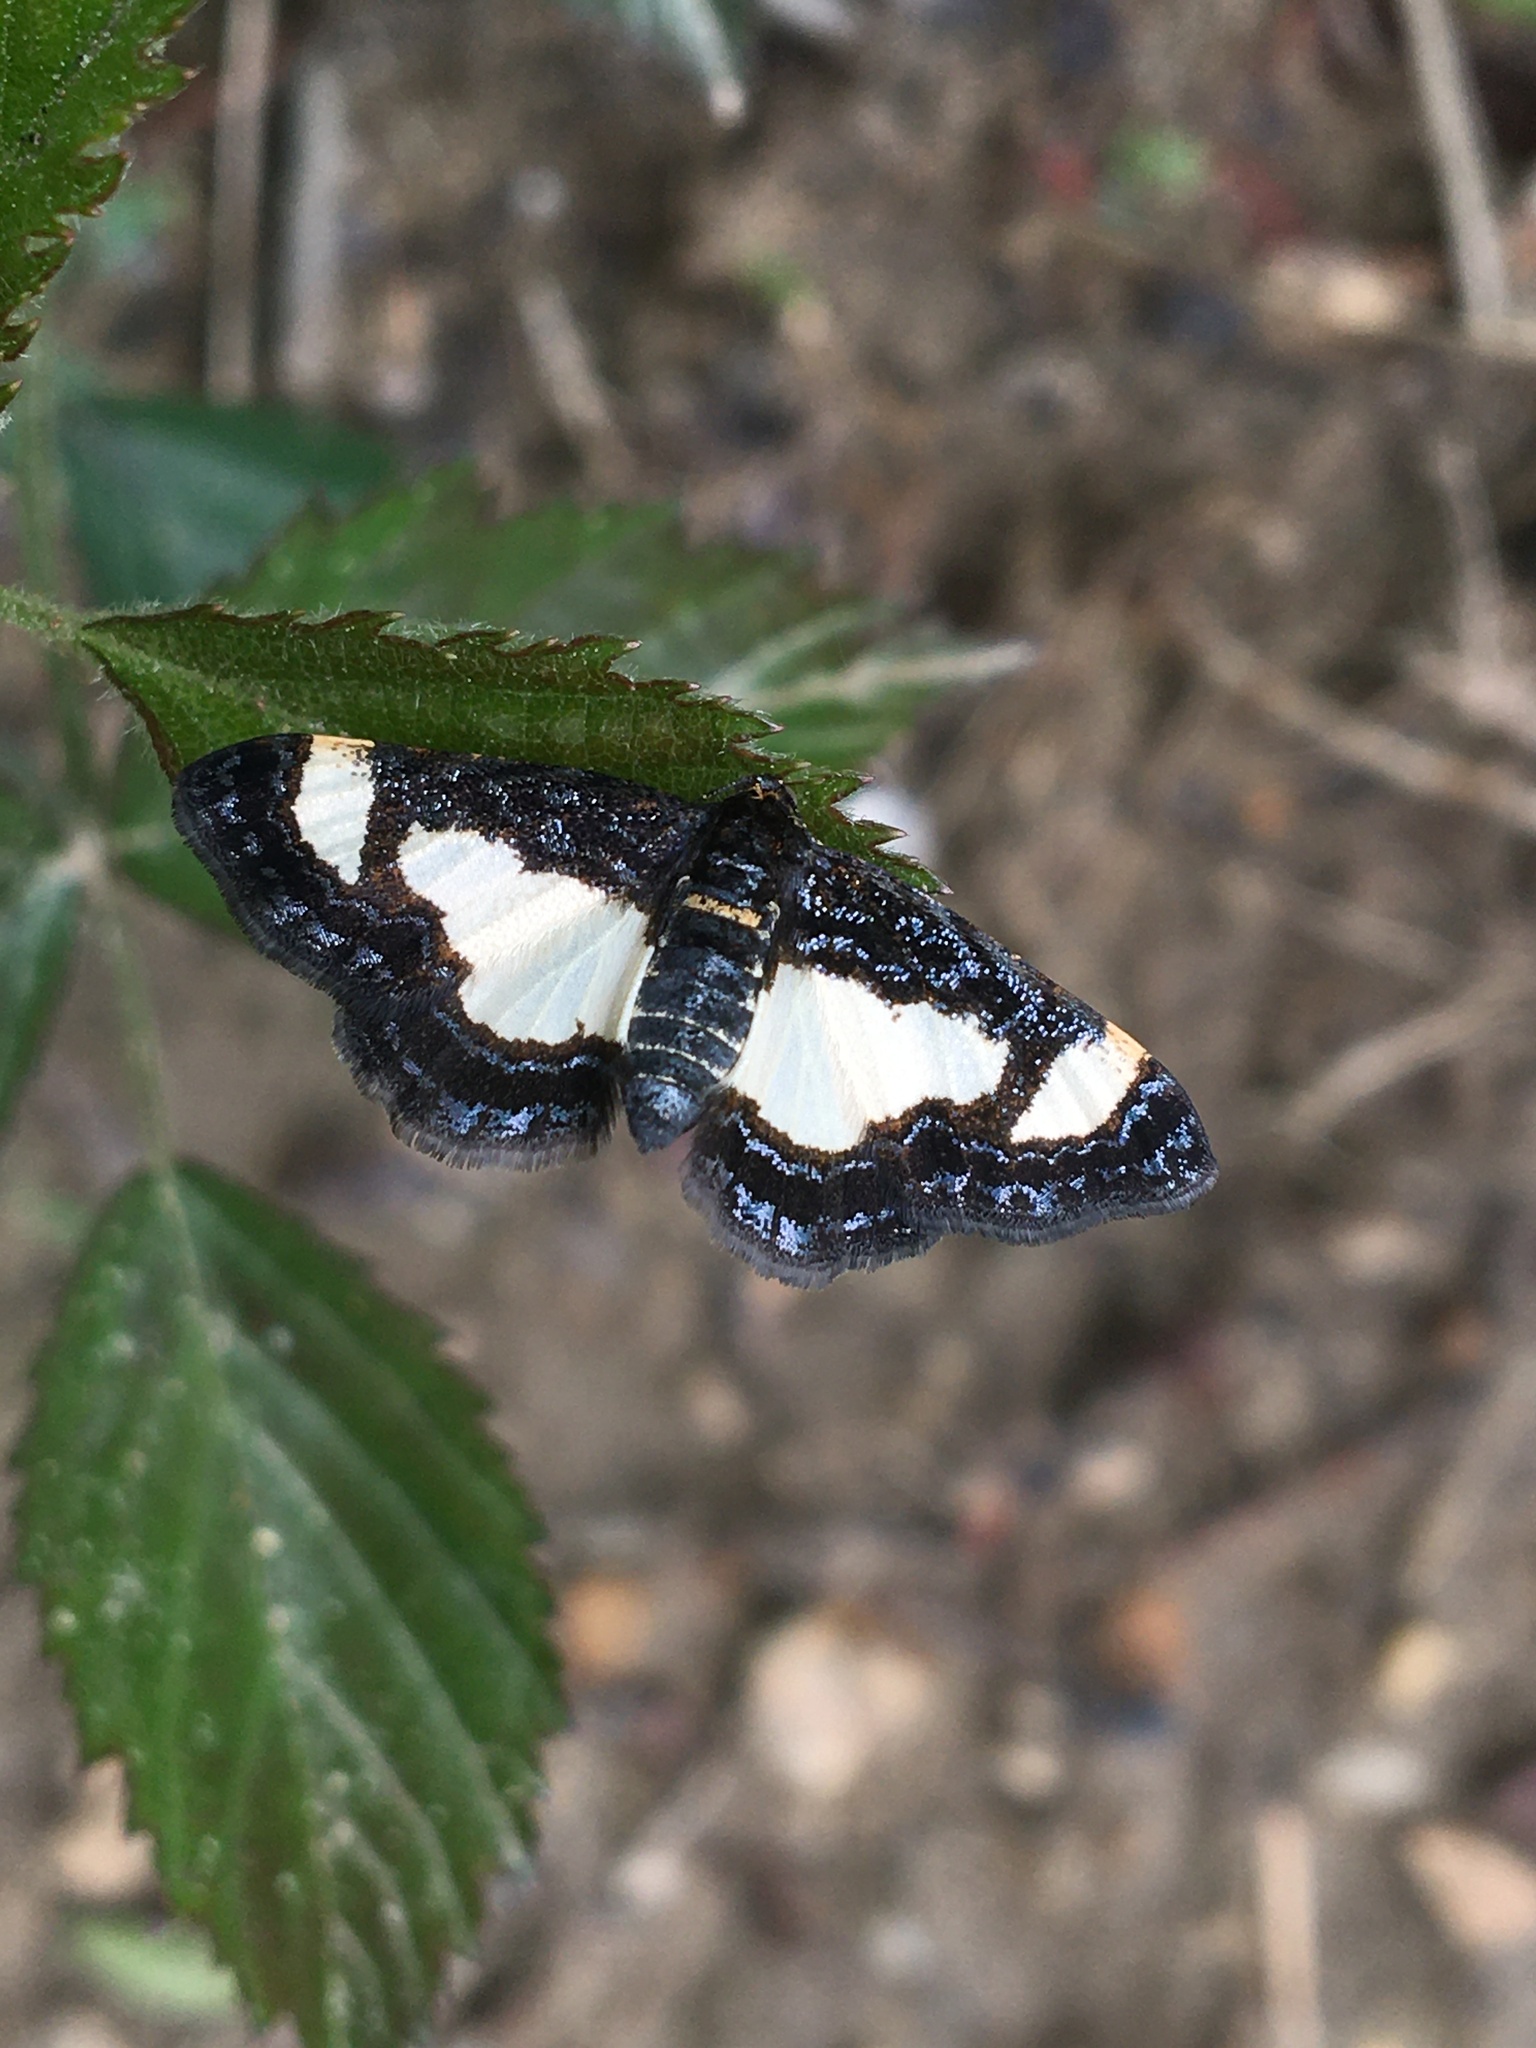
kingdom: Animalia
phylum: Arthropoda
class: Insecta
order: Lepidoptera
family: Geometridae
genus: Heliomata
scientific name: Heliomata cycladata
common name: Common spring moth
